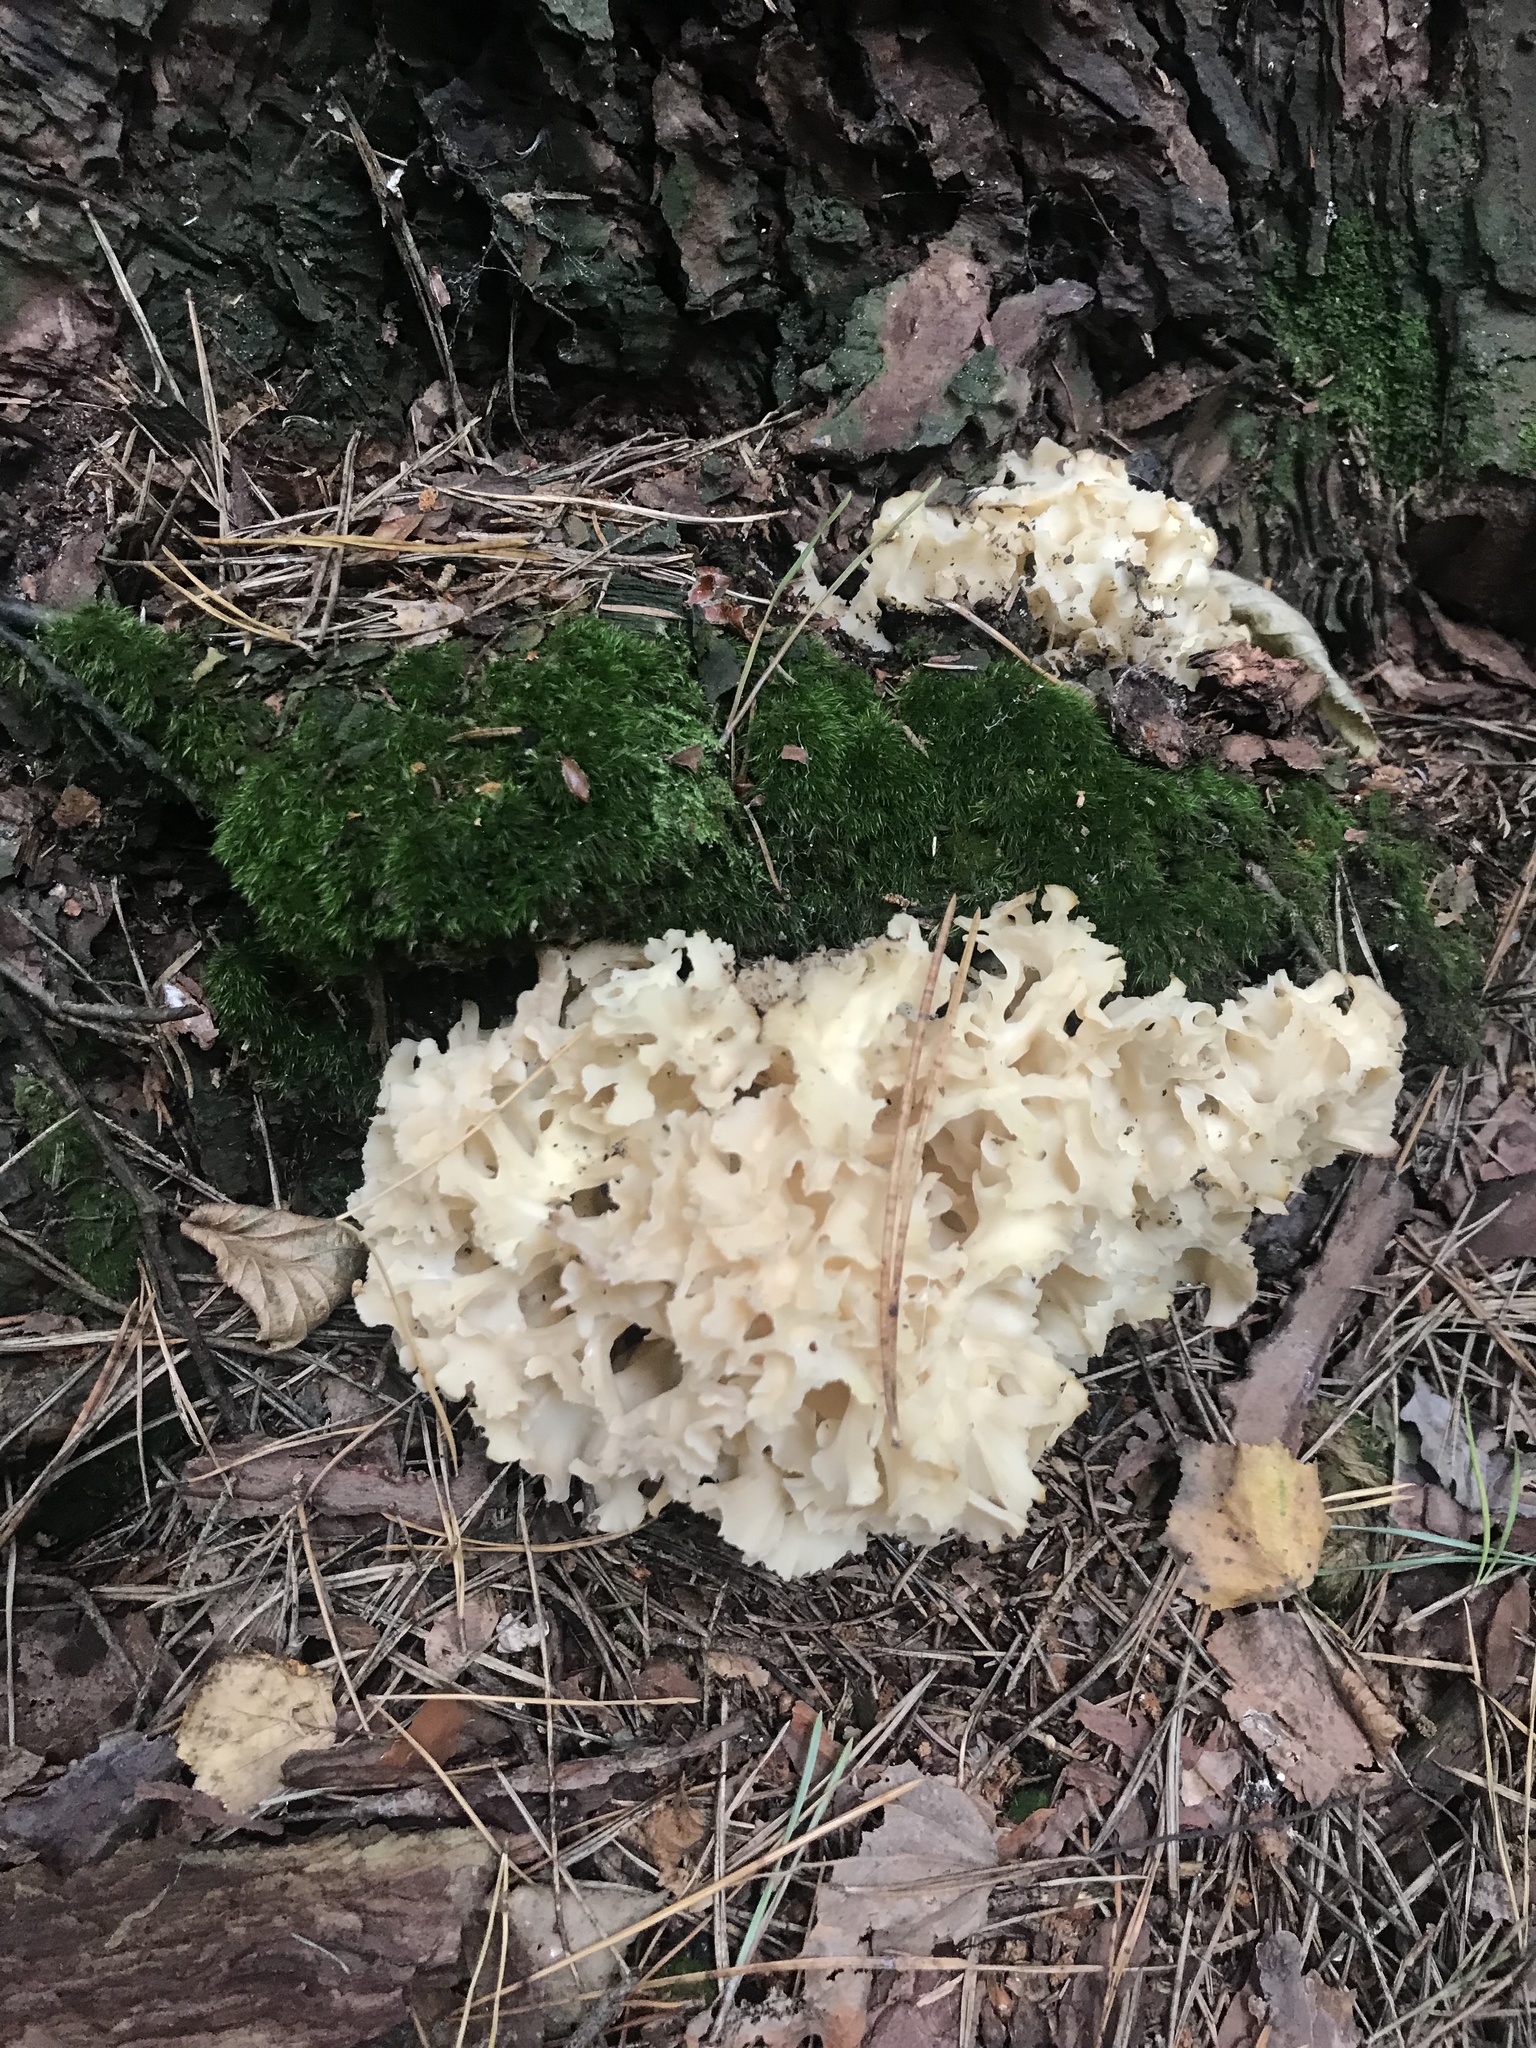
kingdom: Fungi
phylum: Basidiomycota
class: Agaricomycetes
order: Polyporales
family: Sparassidaceae
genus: Sparassis
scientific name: Sparassis crispa
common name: Brain fungus
